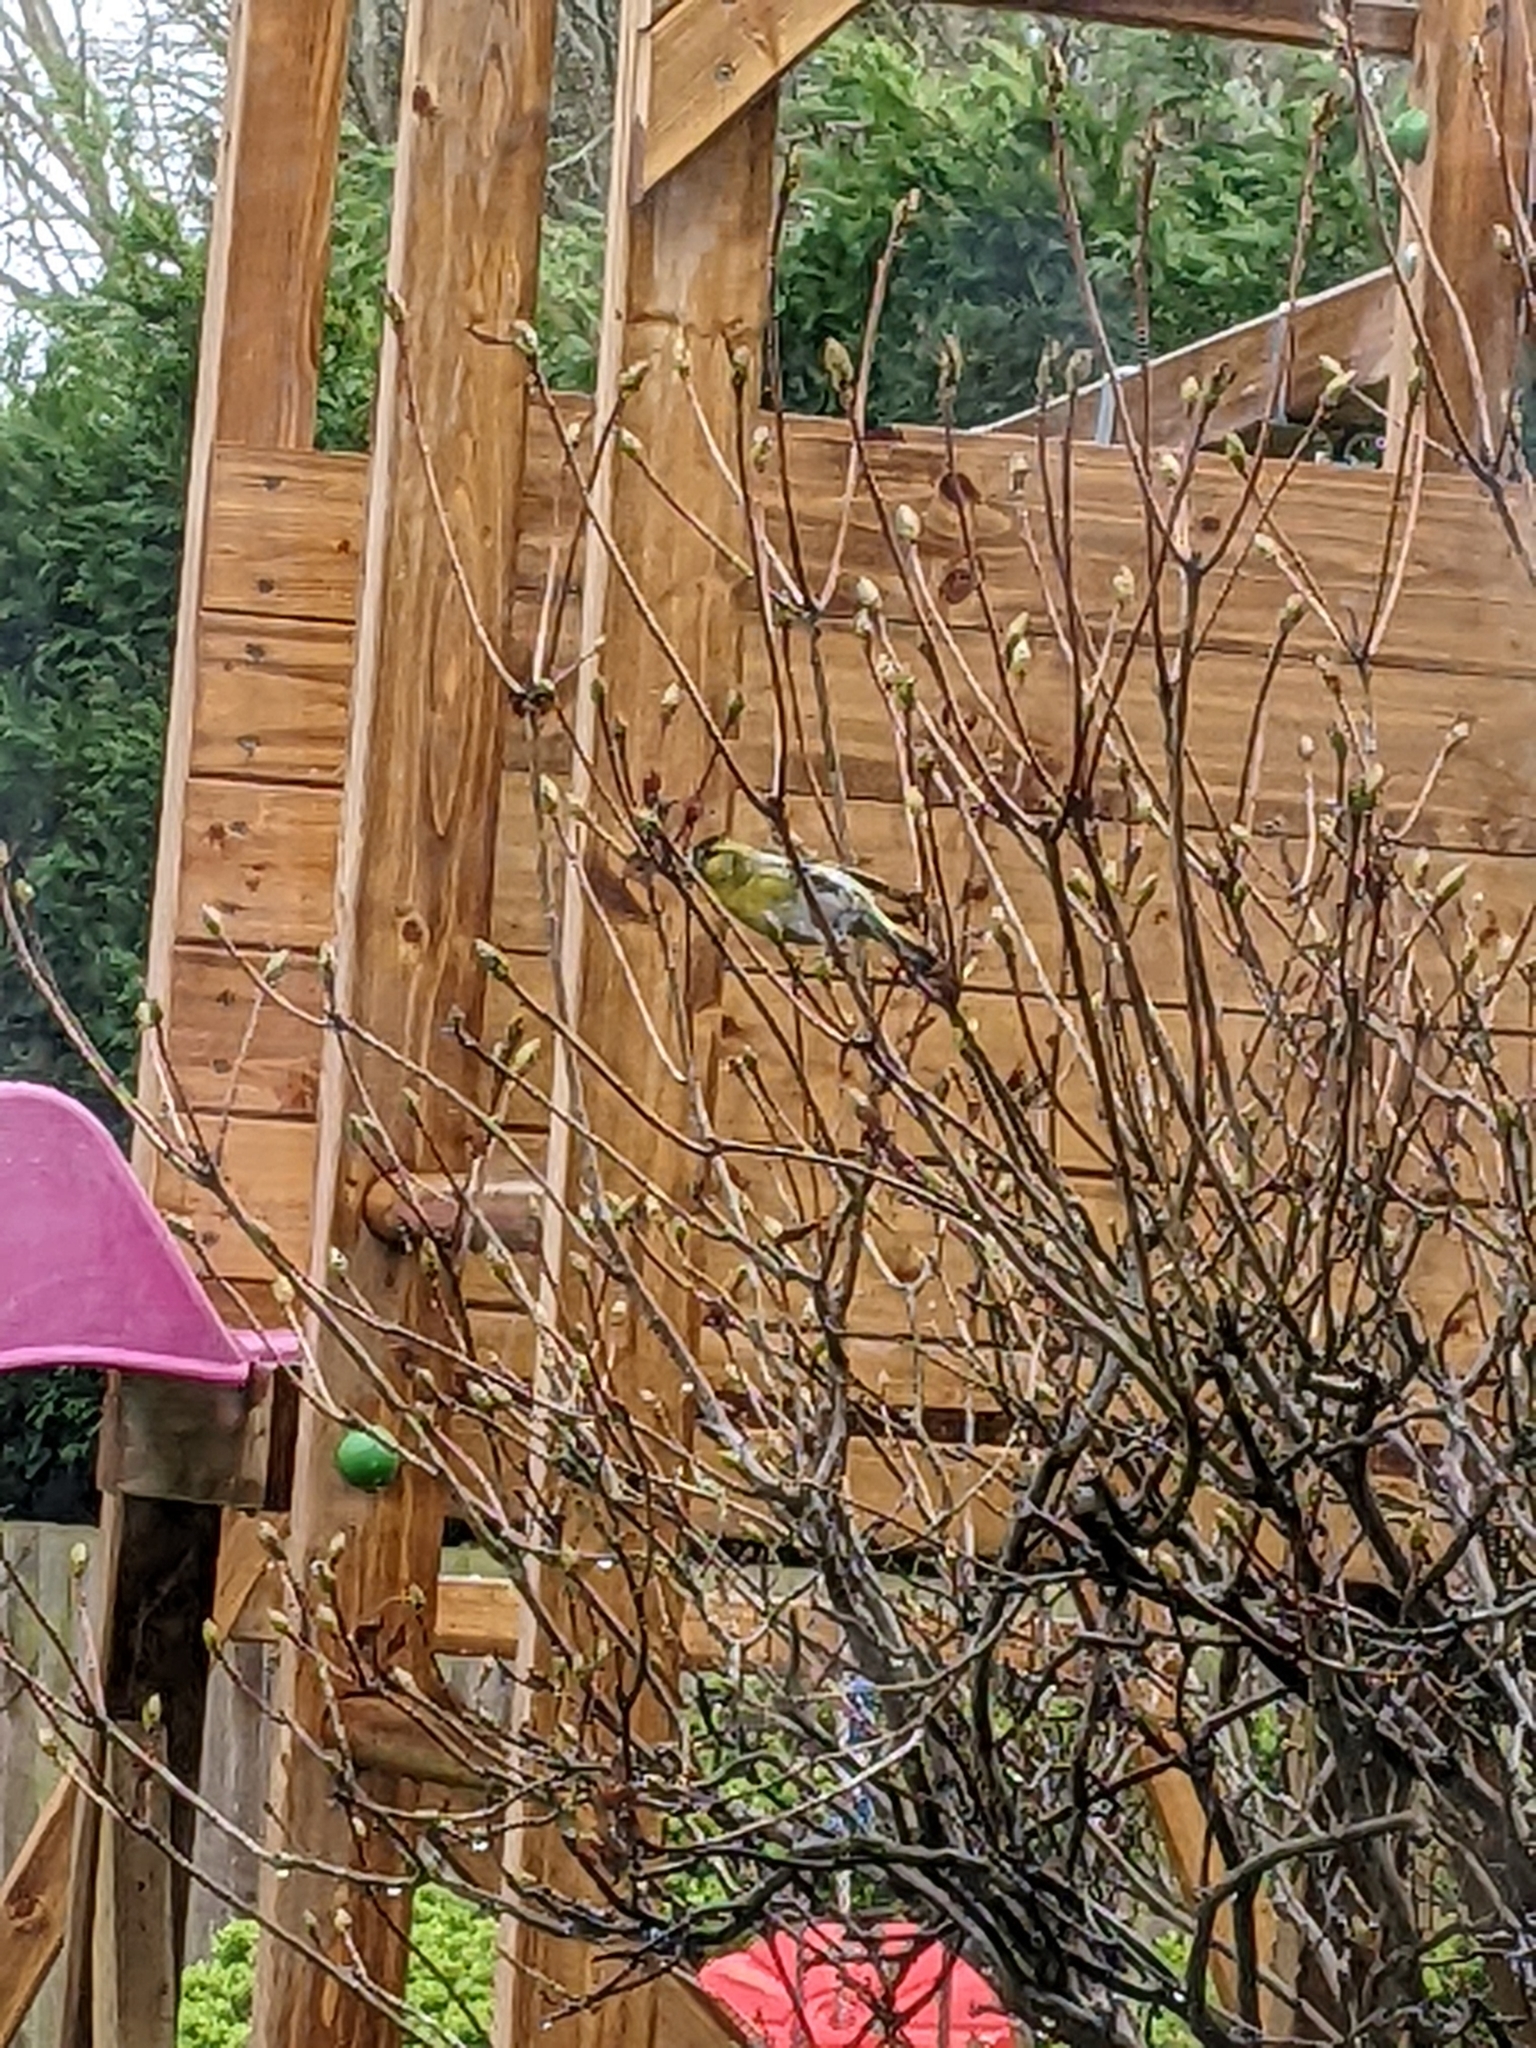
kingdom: Animalia
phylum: Chordata
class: Aves
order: Passeriformes
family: Fringillidae
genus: Spinus
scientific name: Spinus spinus
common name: Eurasian siskin
